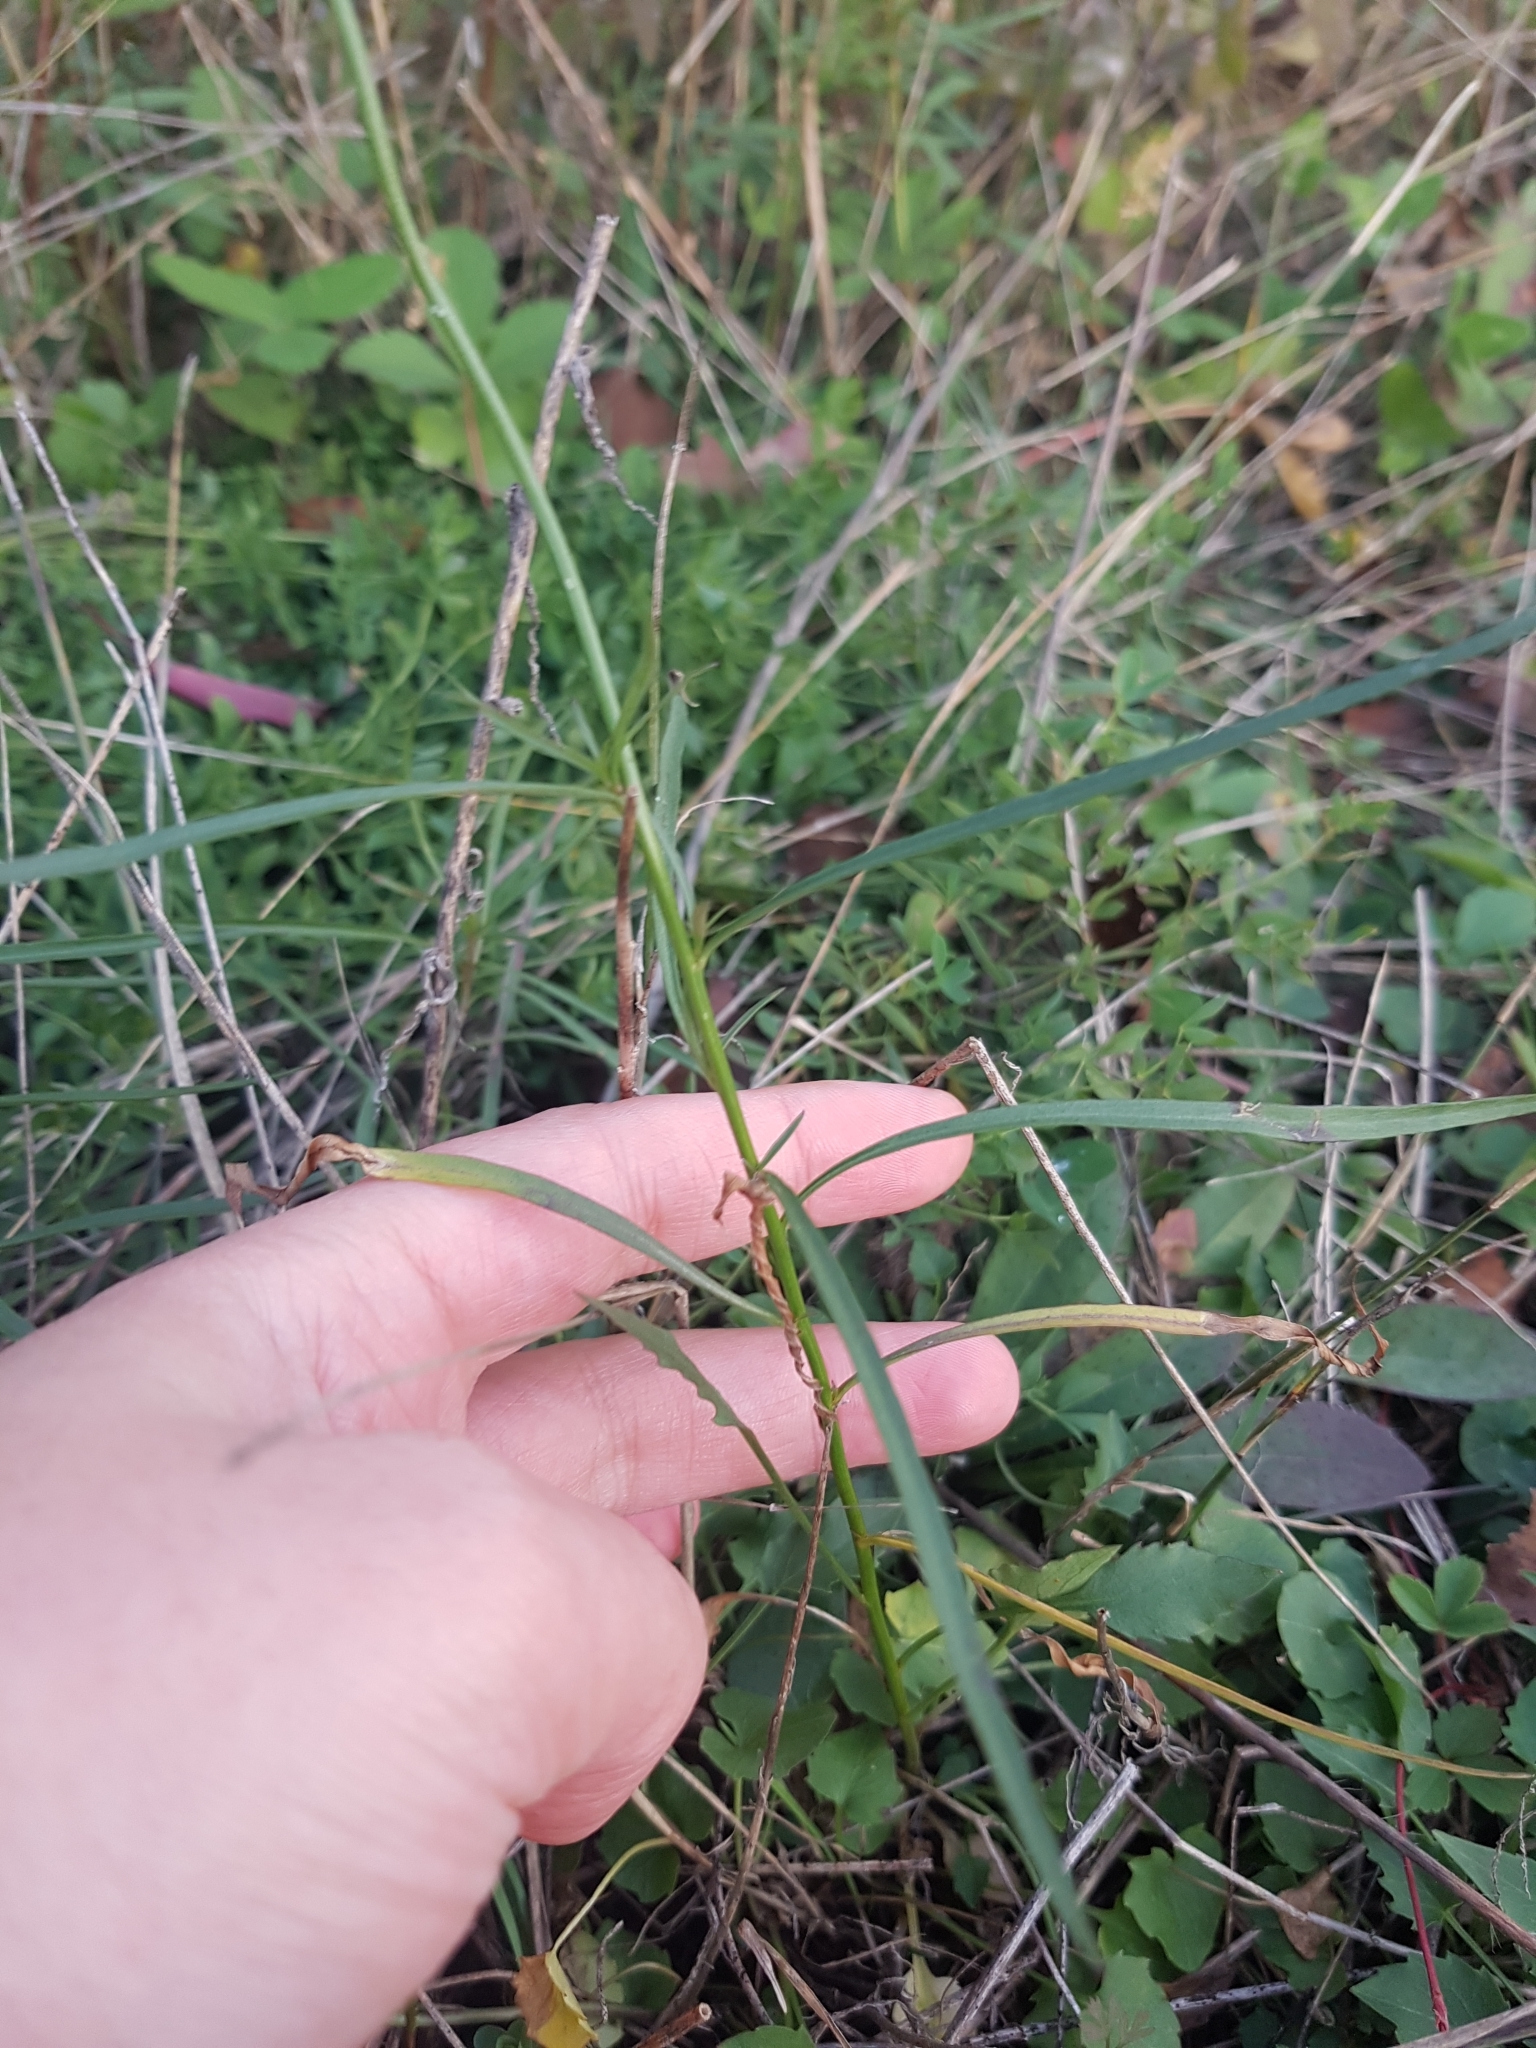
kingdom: Plantae
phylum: Tracheophyta
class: Magnoliopsida
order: Asterales
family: Campanulaceae
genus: Campanula
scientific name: Campanula rapunculoides
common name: Creeping bellflower
